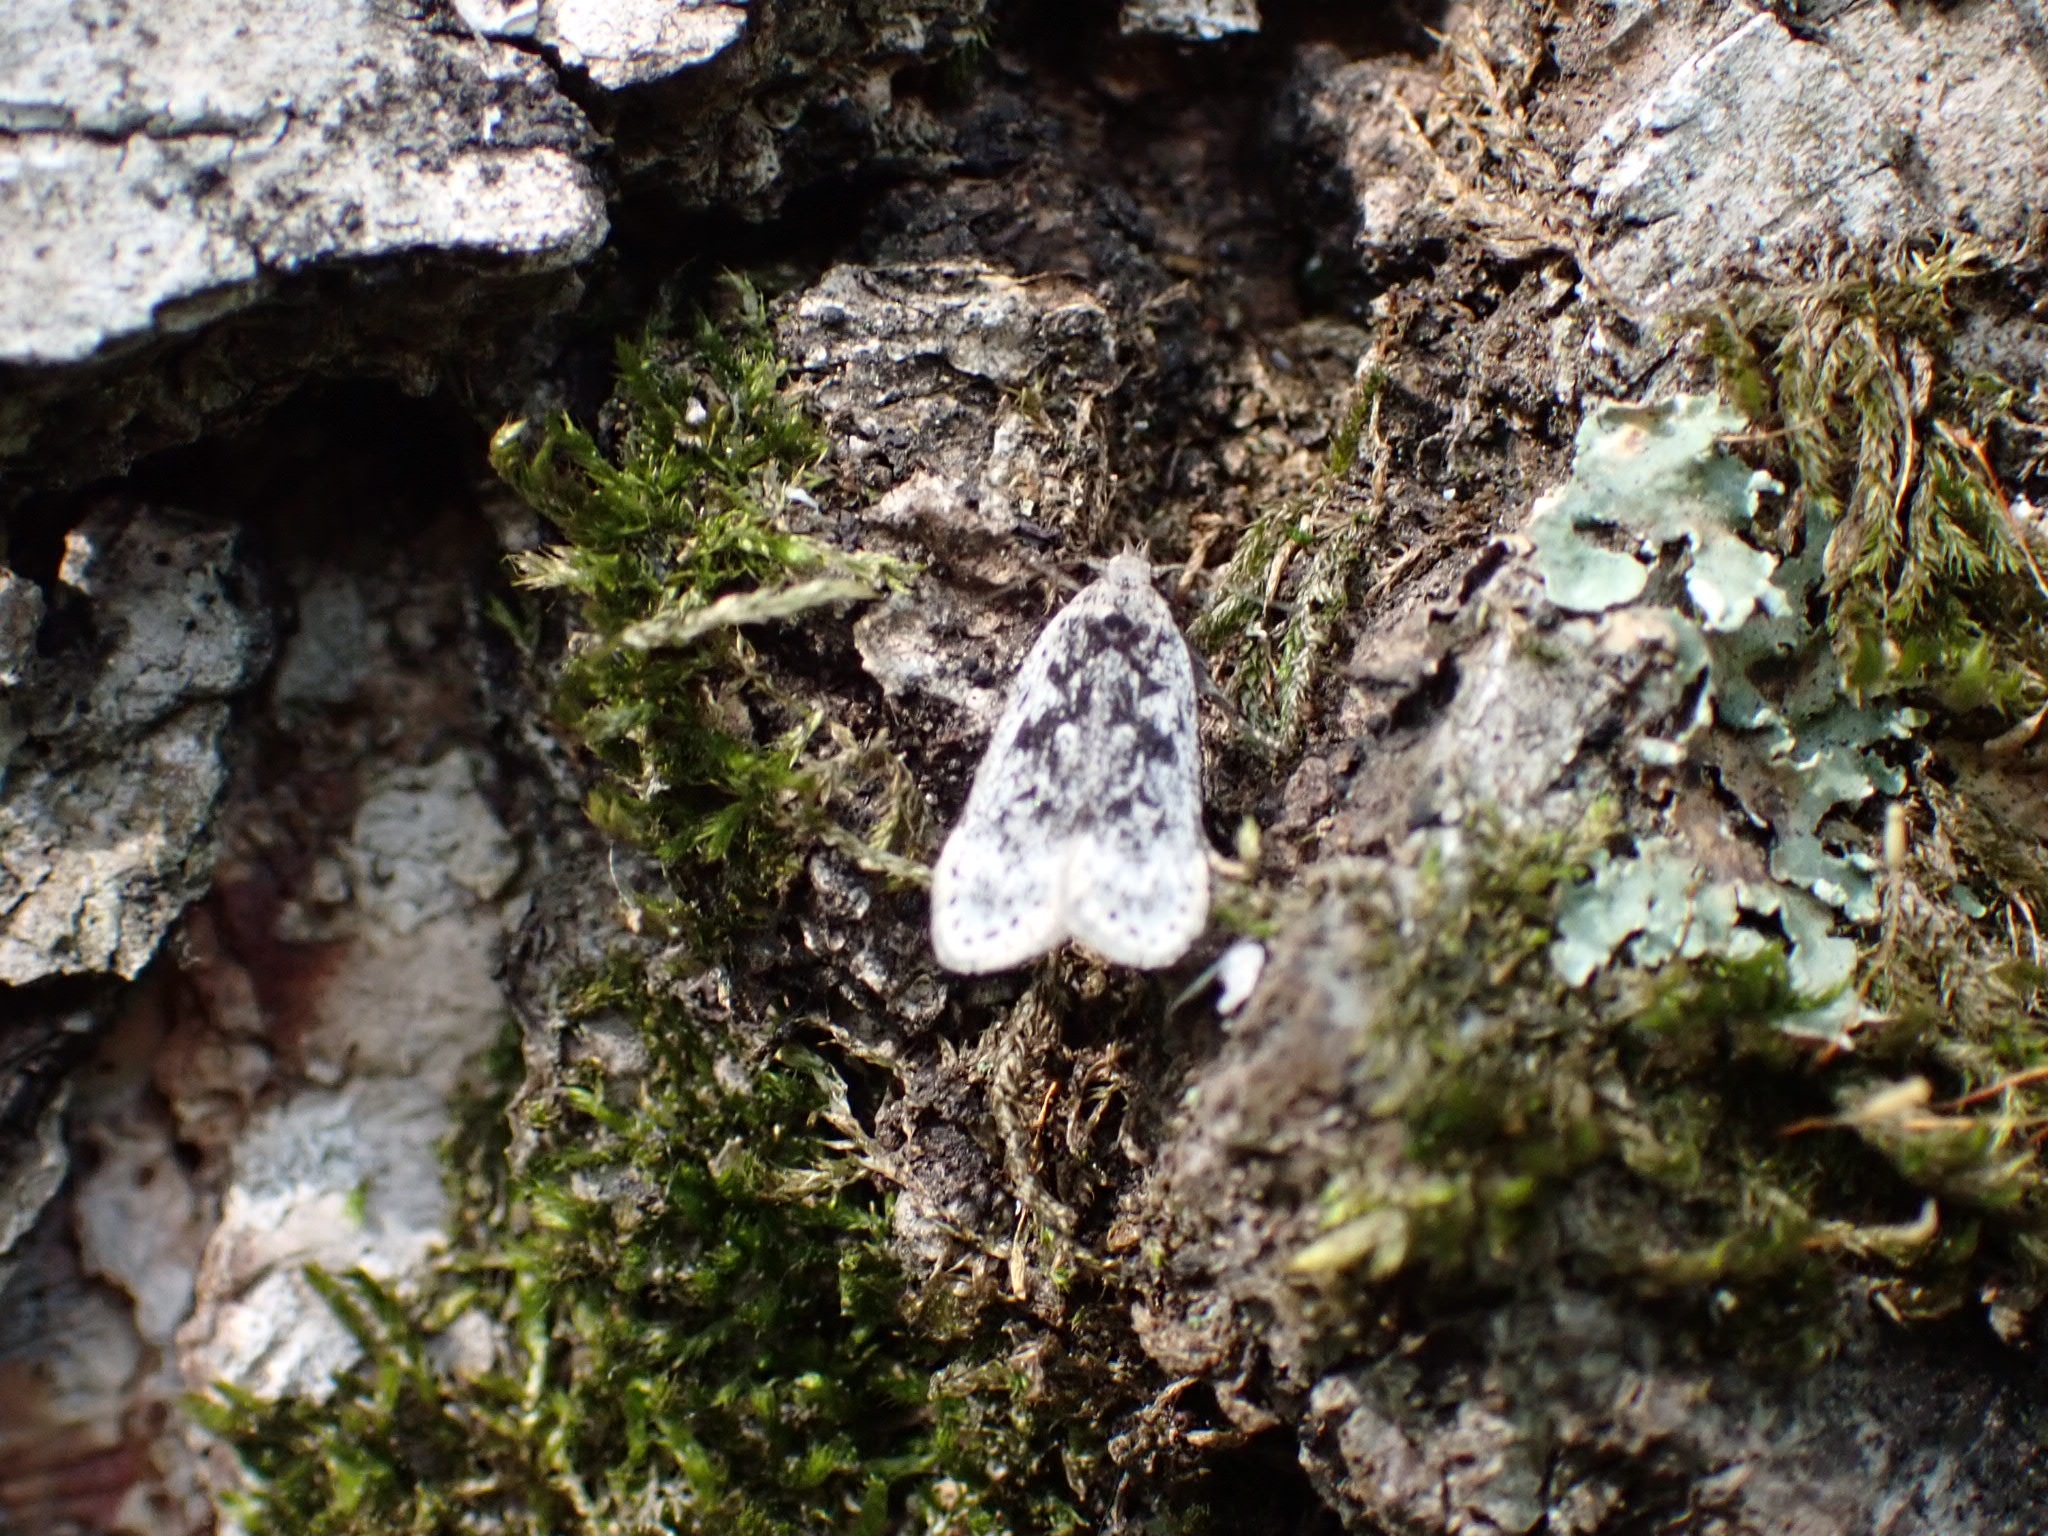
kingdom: Animalia
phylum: Arthropoda
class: Insecta
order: Lepidoptera
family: Gelechiidae
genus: Anacampsis
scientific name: Anacampsis blattariella
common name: Birch sober
